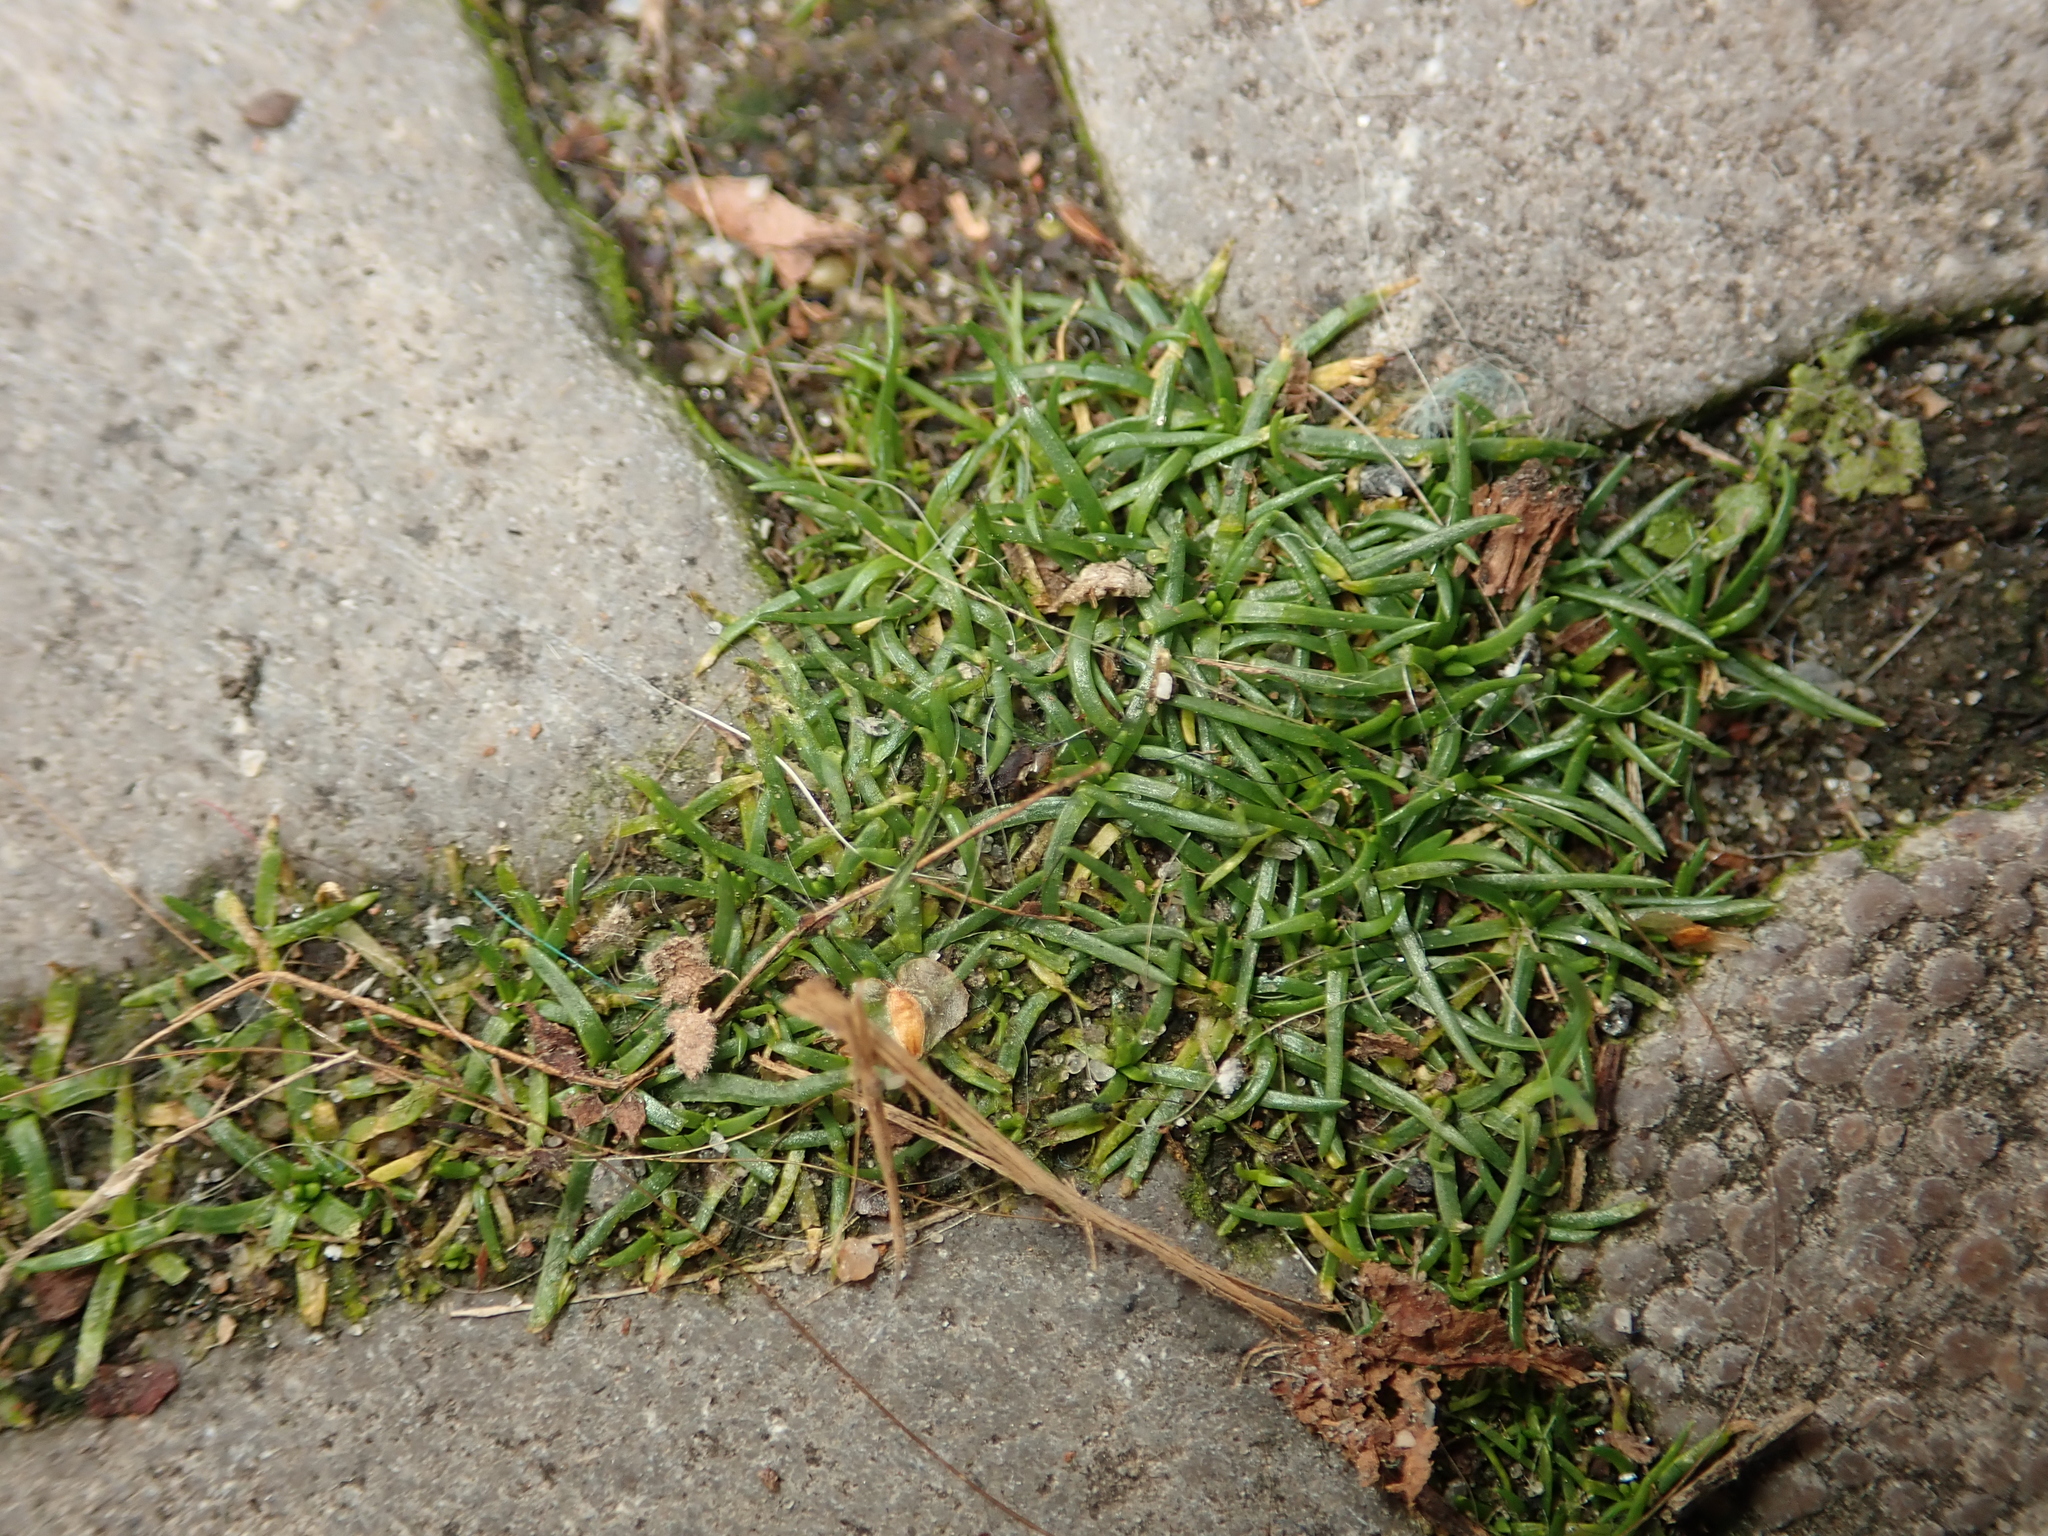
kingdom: Plantae
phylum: Tracheophyta
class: Magnoliopsida
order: Caryophyllales
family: Caryophyllaceae
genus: Sagina
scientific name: Sagina procumbens
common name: Procumbent pearlwort
